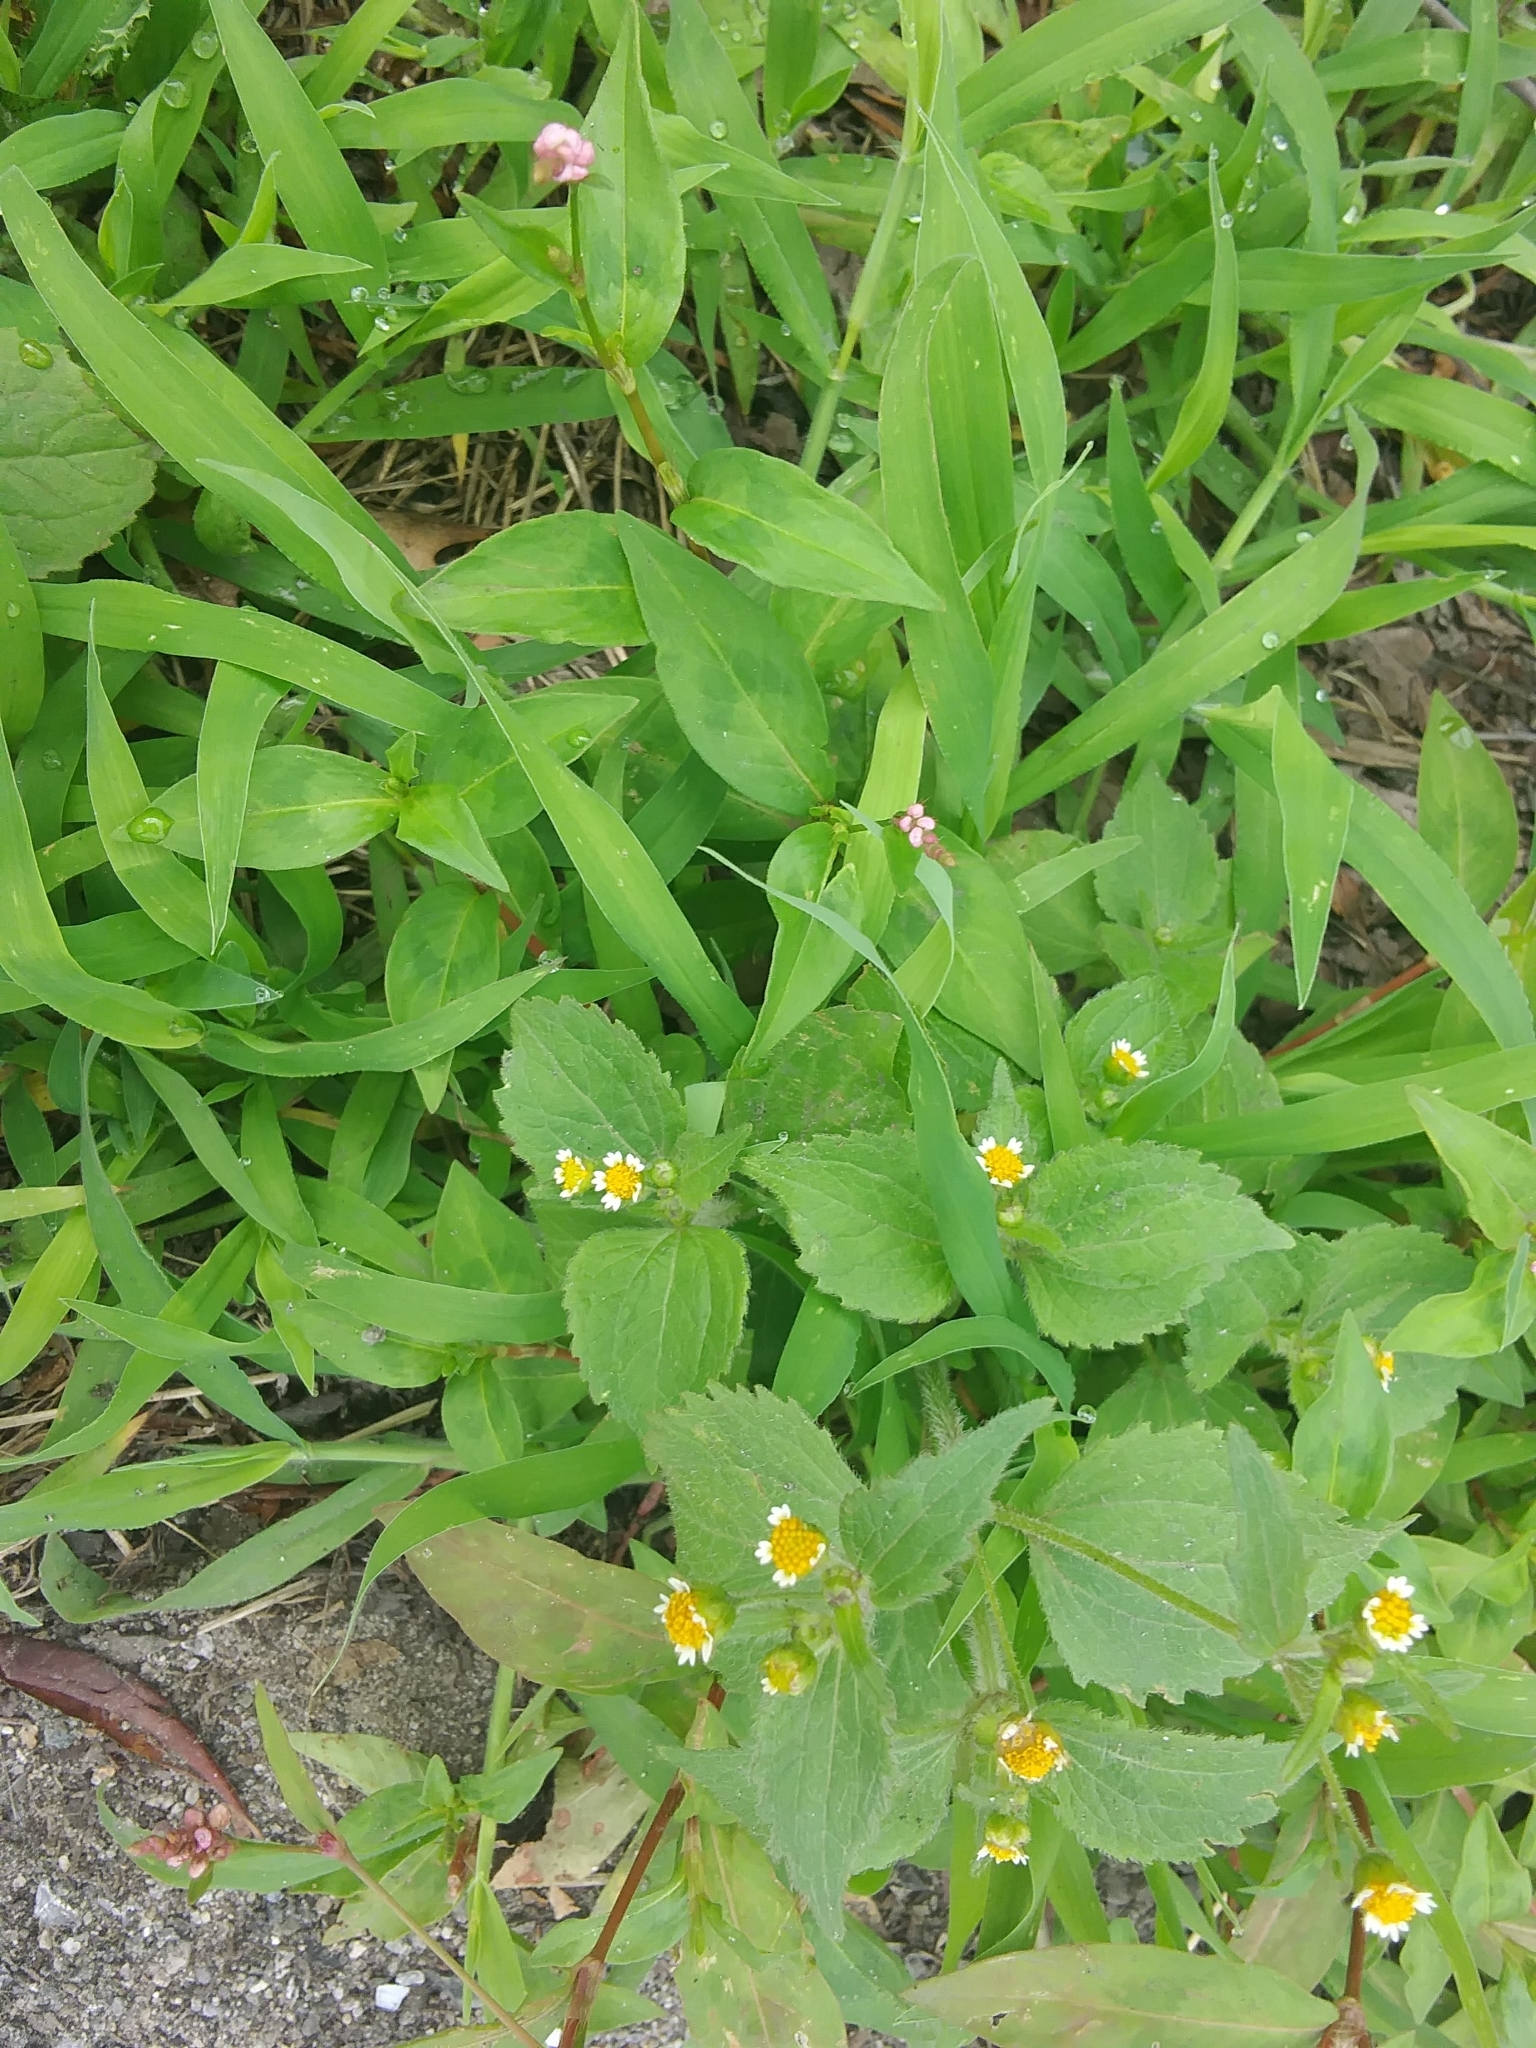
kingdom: Plantae
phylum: Tracheophyta
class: Magnoliopsida
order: Asterales
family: Asteraceae
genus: Galinsoga
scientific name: Galinsoga quadriradiata
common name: Shaggy soldier
